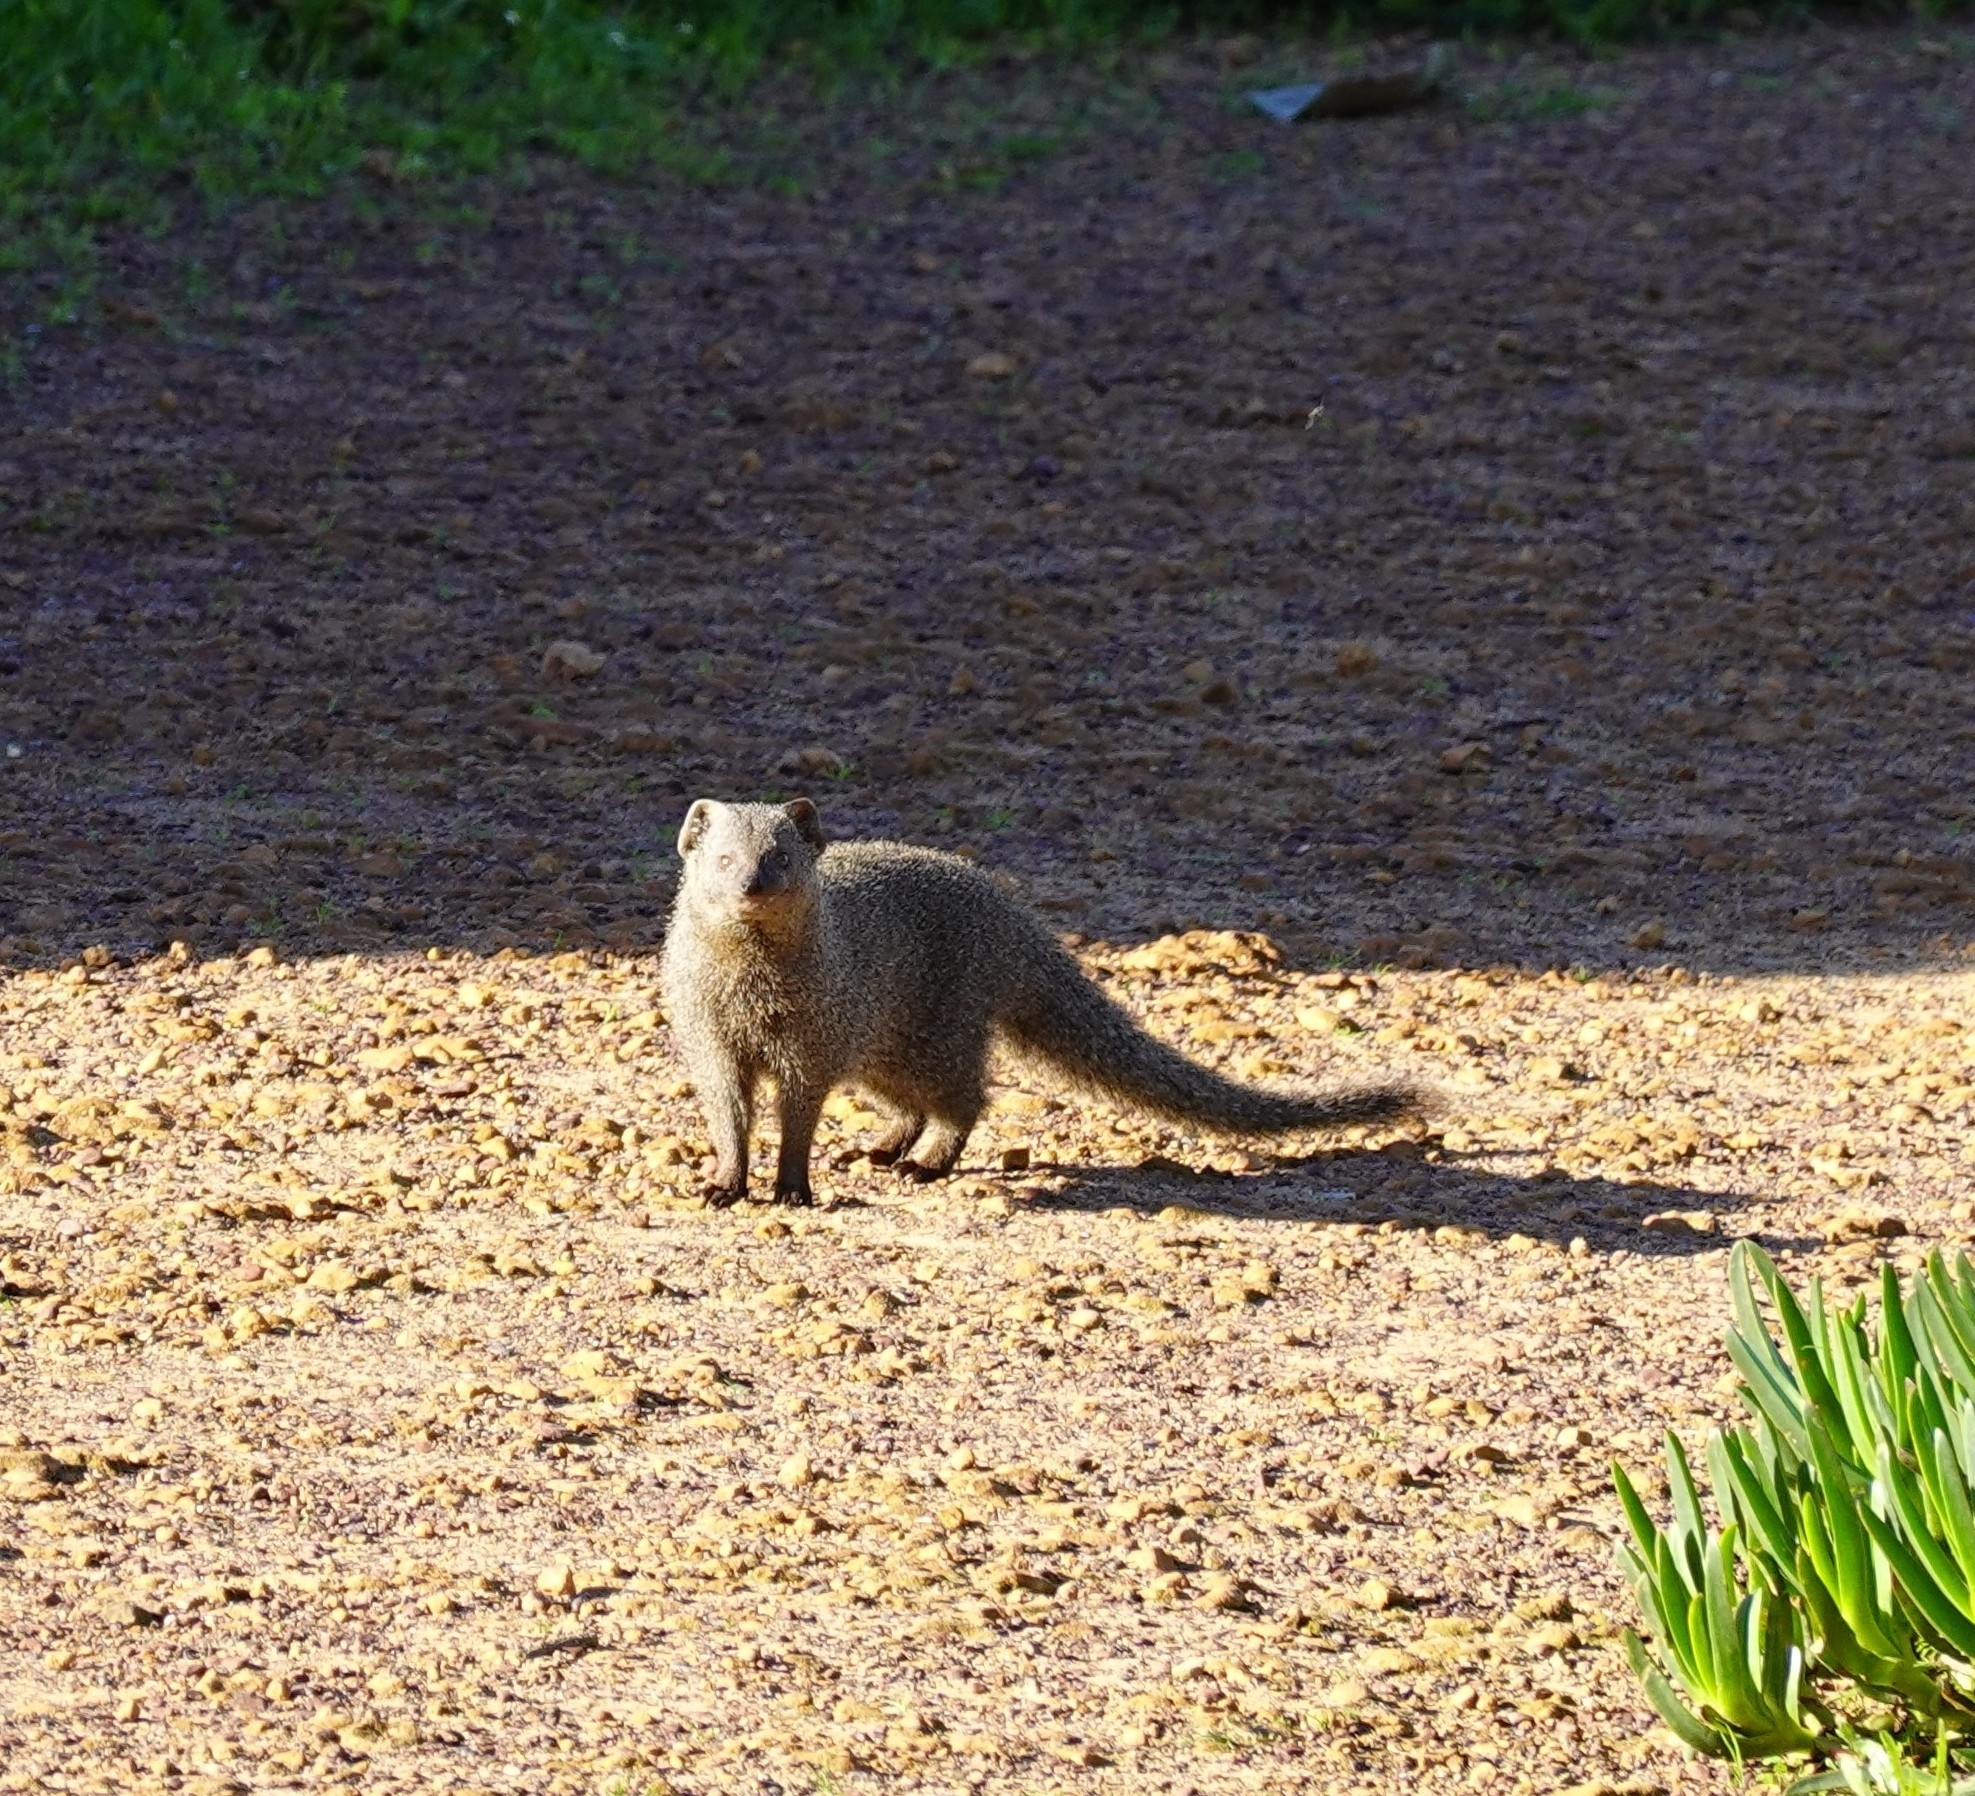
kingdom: Animalia
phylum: Chordata
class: Mammalia
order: Carnivora
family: Herpestidae
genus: Galerella
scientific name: Galerella pulverulenta
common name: Cape gray mongoose
